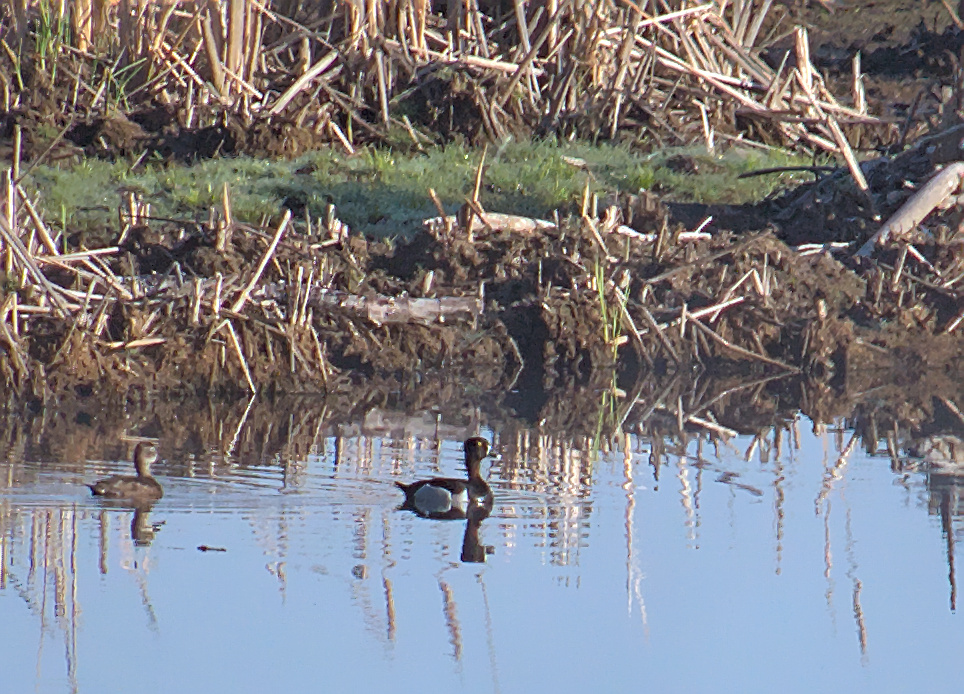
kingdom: Animalia
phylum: Chordata
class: Aves
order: Anseriformes
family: Anatidae
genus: Aythya
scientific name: Aythya collaris
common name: Ring-necked duck
